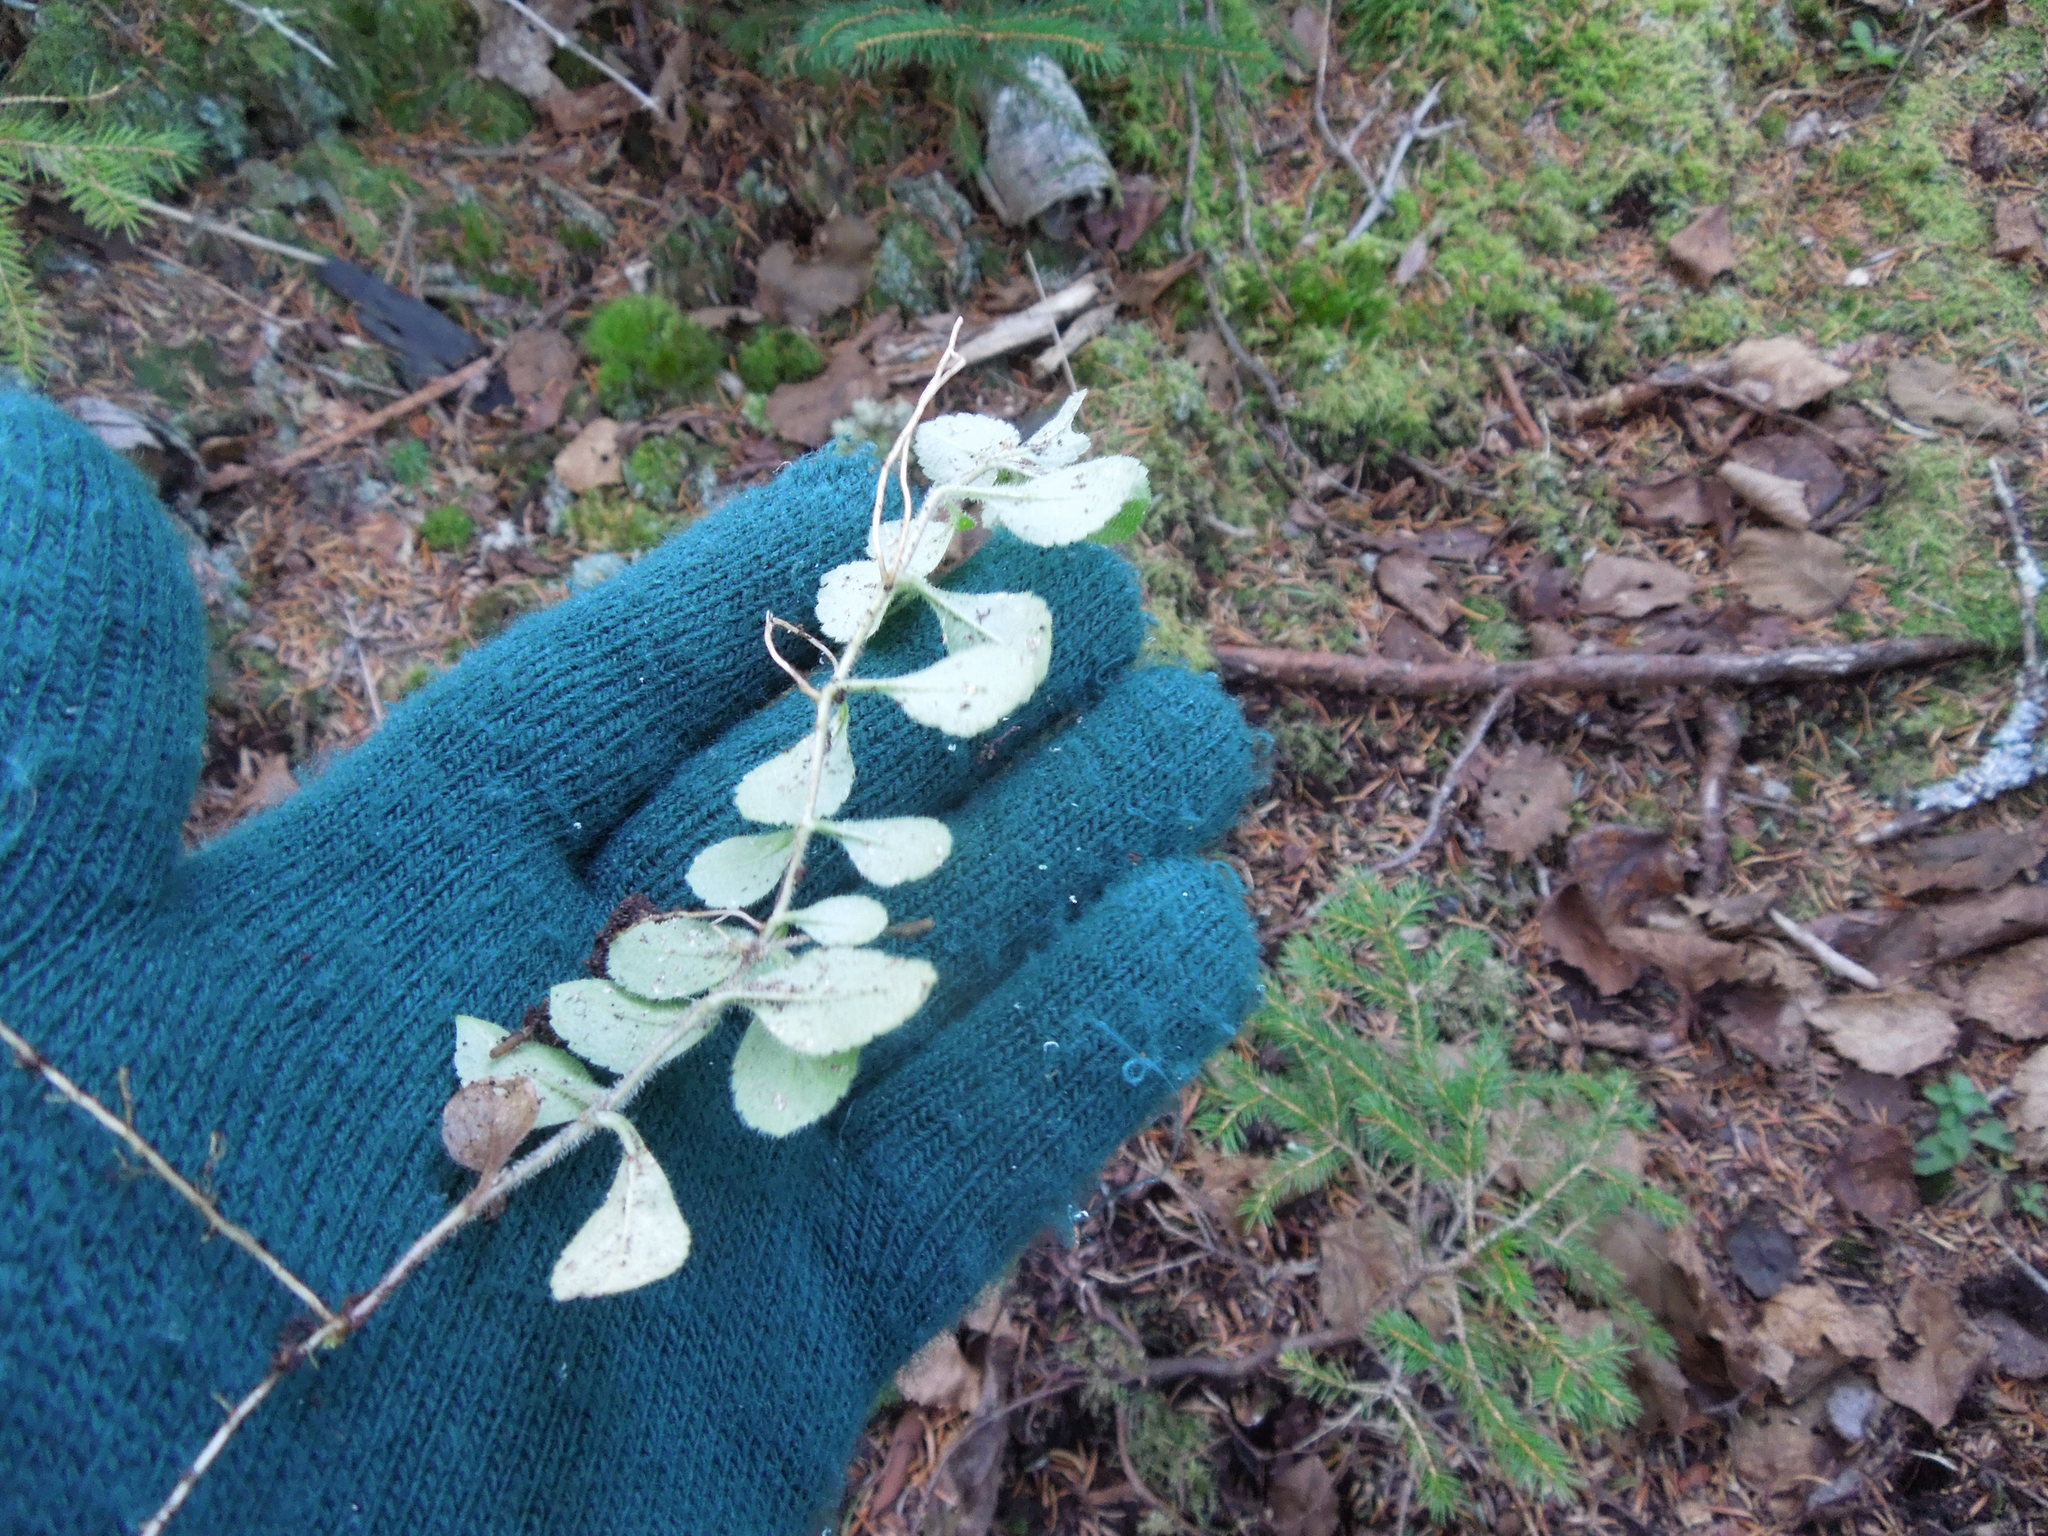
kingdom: Plantae
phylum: Tracheophyta
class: Magnoliopsida
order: Lamiales
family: Plantaginaceae
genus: Veronica
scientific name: Veronica officinalis
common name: Common speedwell
